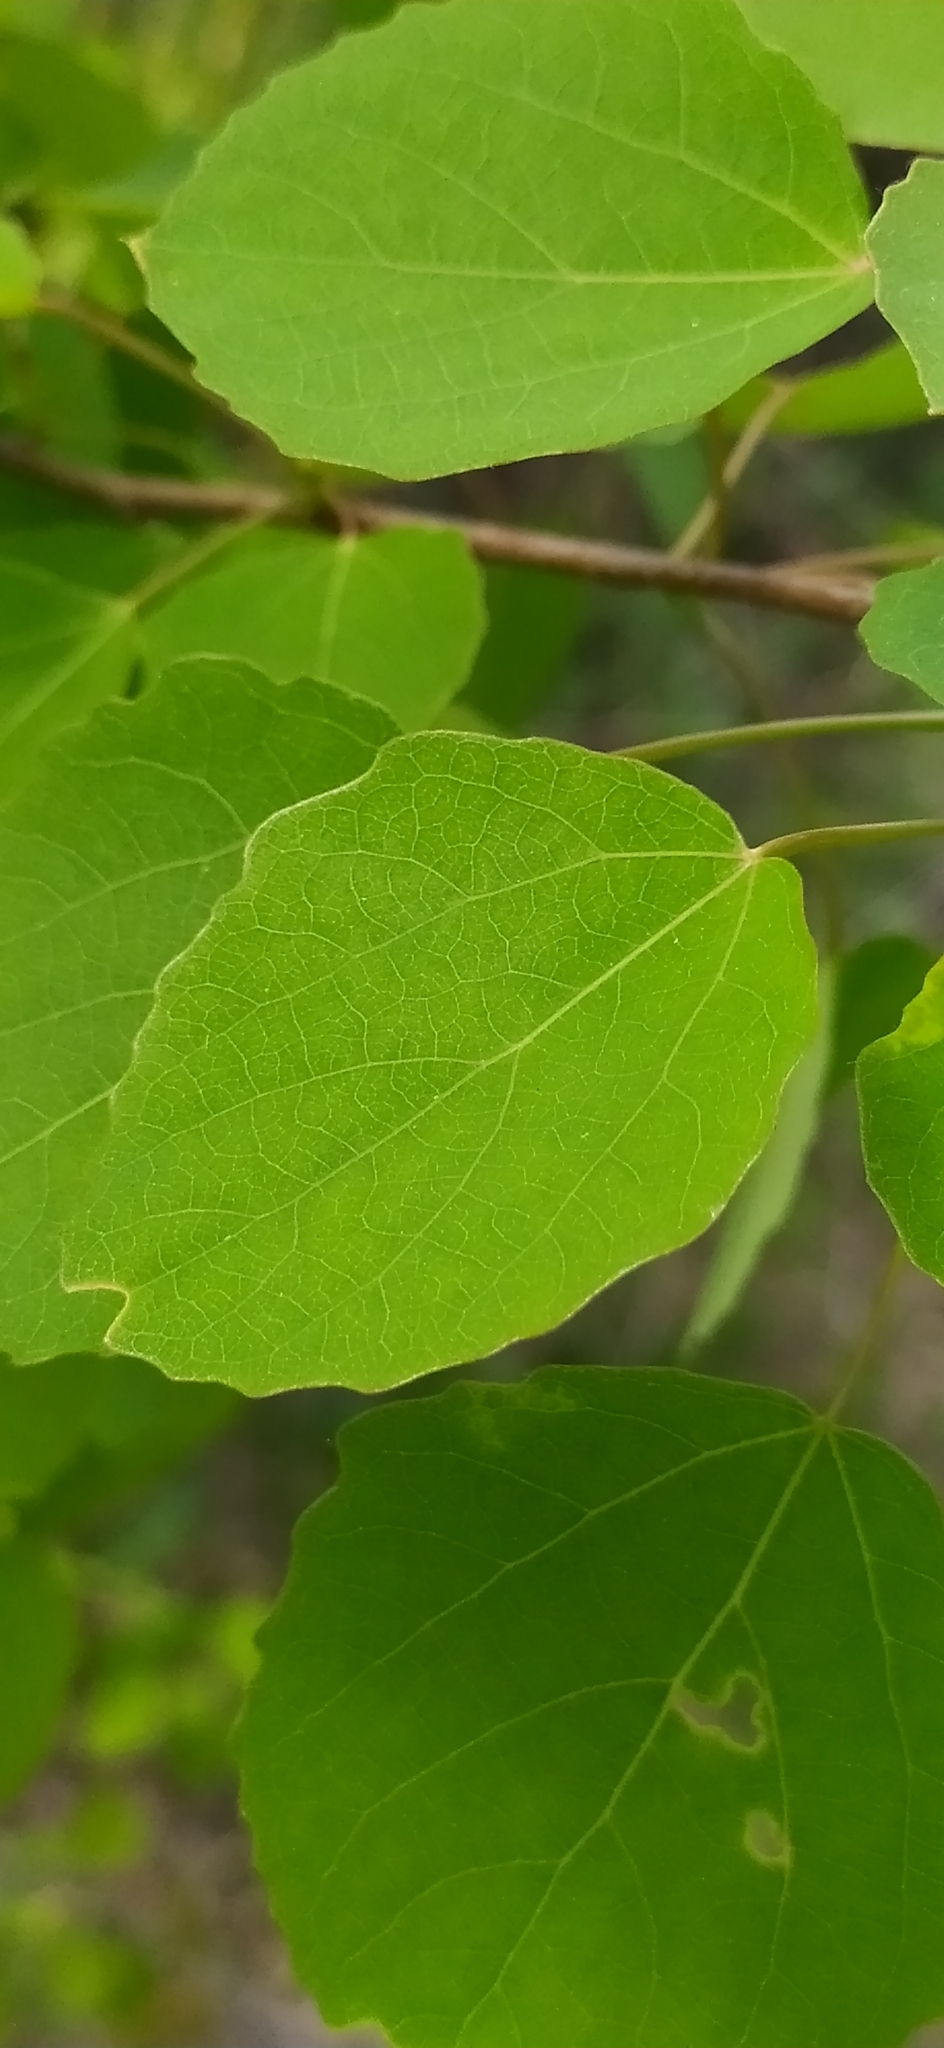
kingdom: Plantae
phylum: Tracheophyta
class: Magnoliopsida
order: Malpighiales
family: Salicaceae
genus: Populus
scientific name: Populus tremula
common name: European aspen
